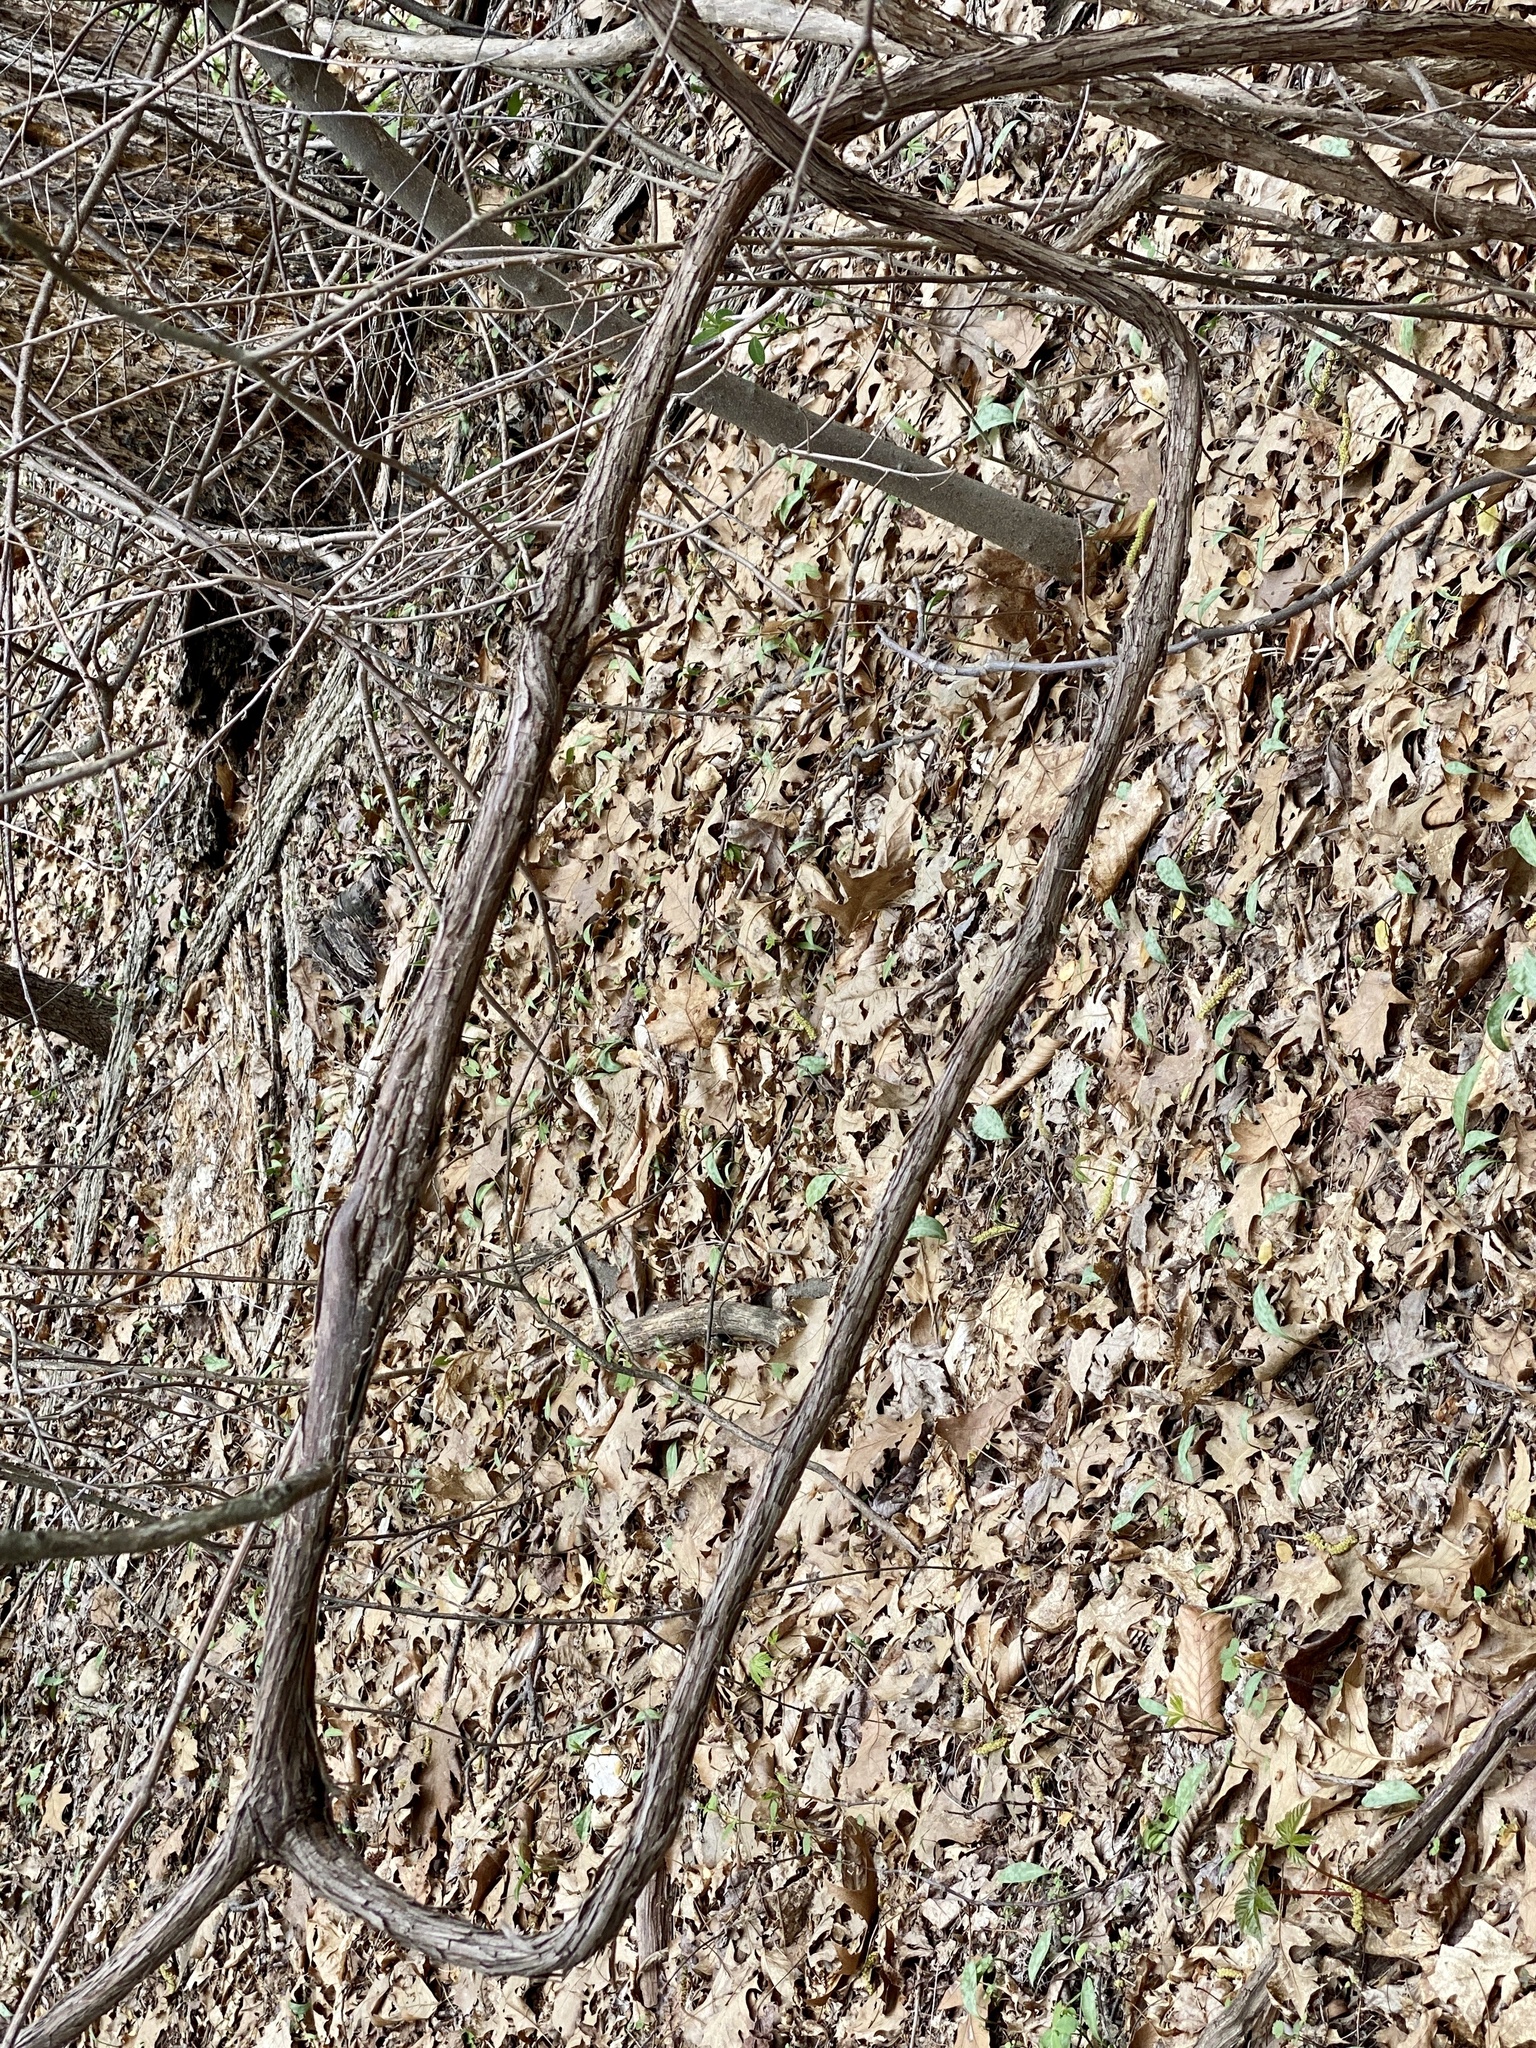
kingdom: Plantae
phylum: Tracheophyta
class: Magnoliopsida
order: Vitales
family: Vitaceae
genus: Vitis
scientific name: Vitis
